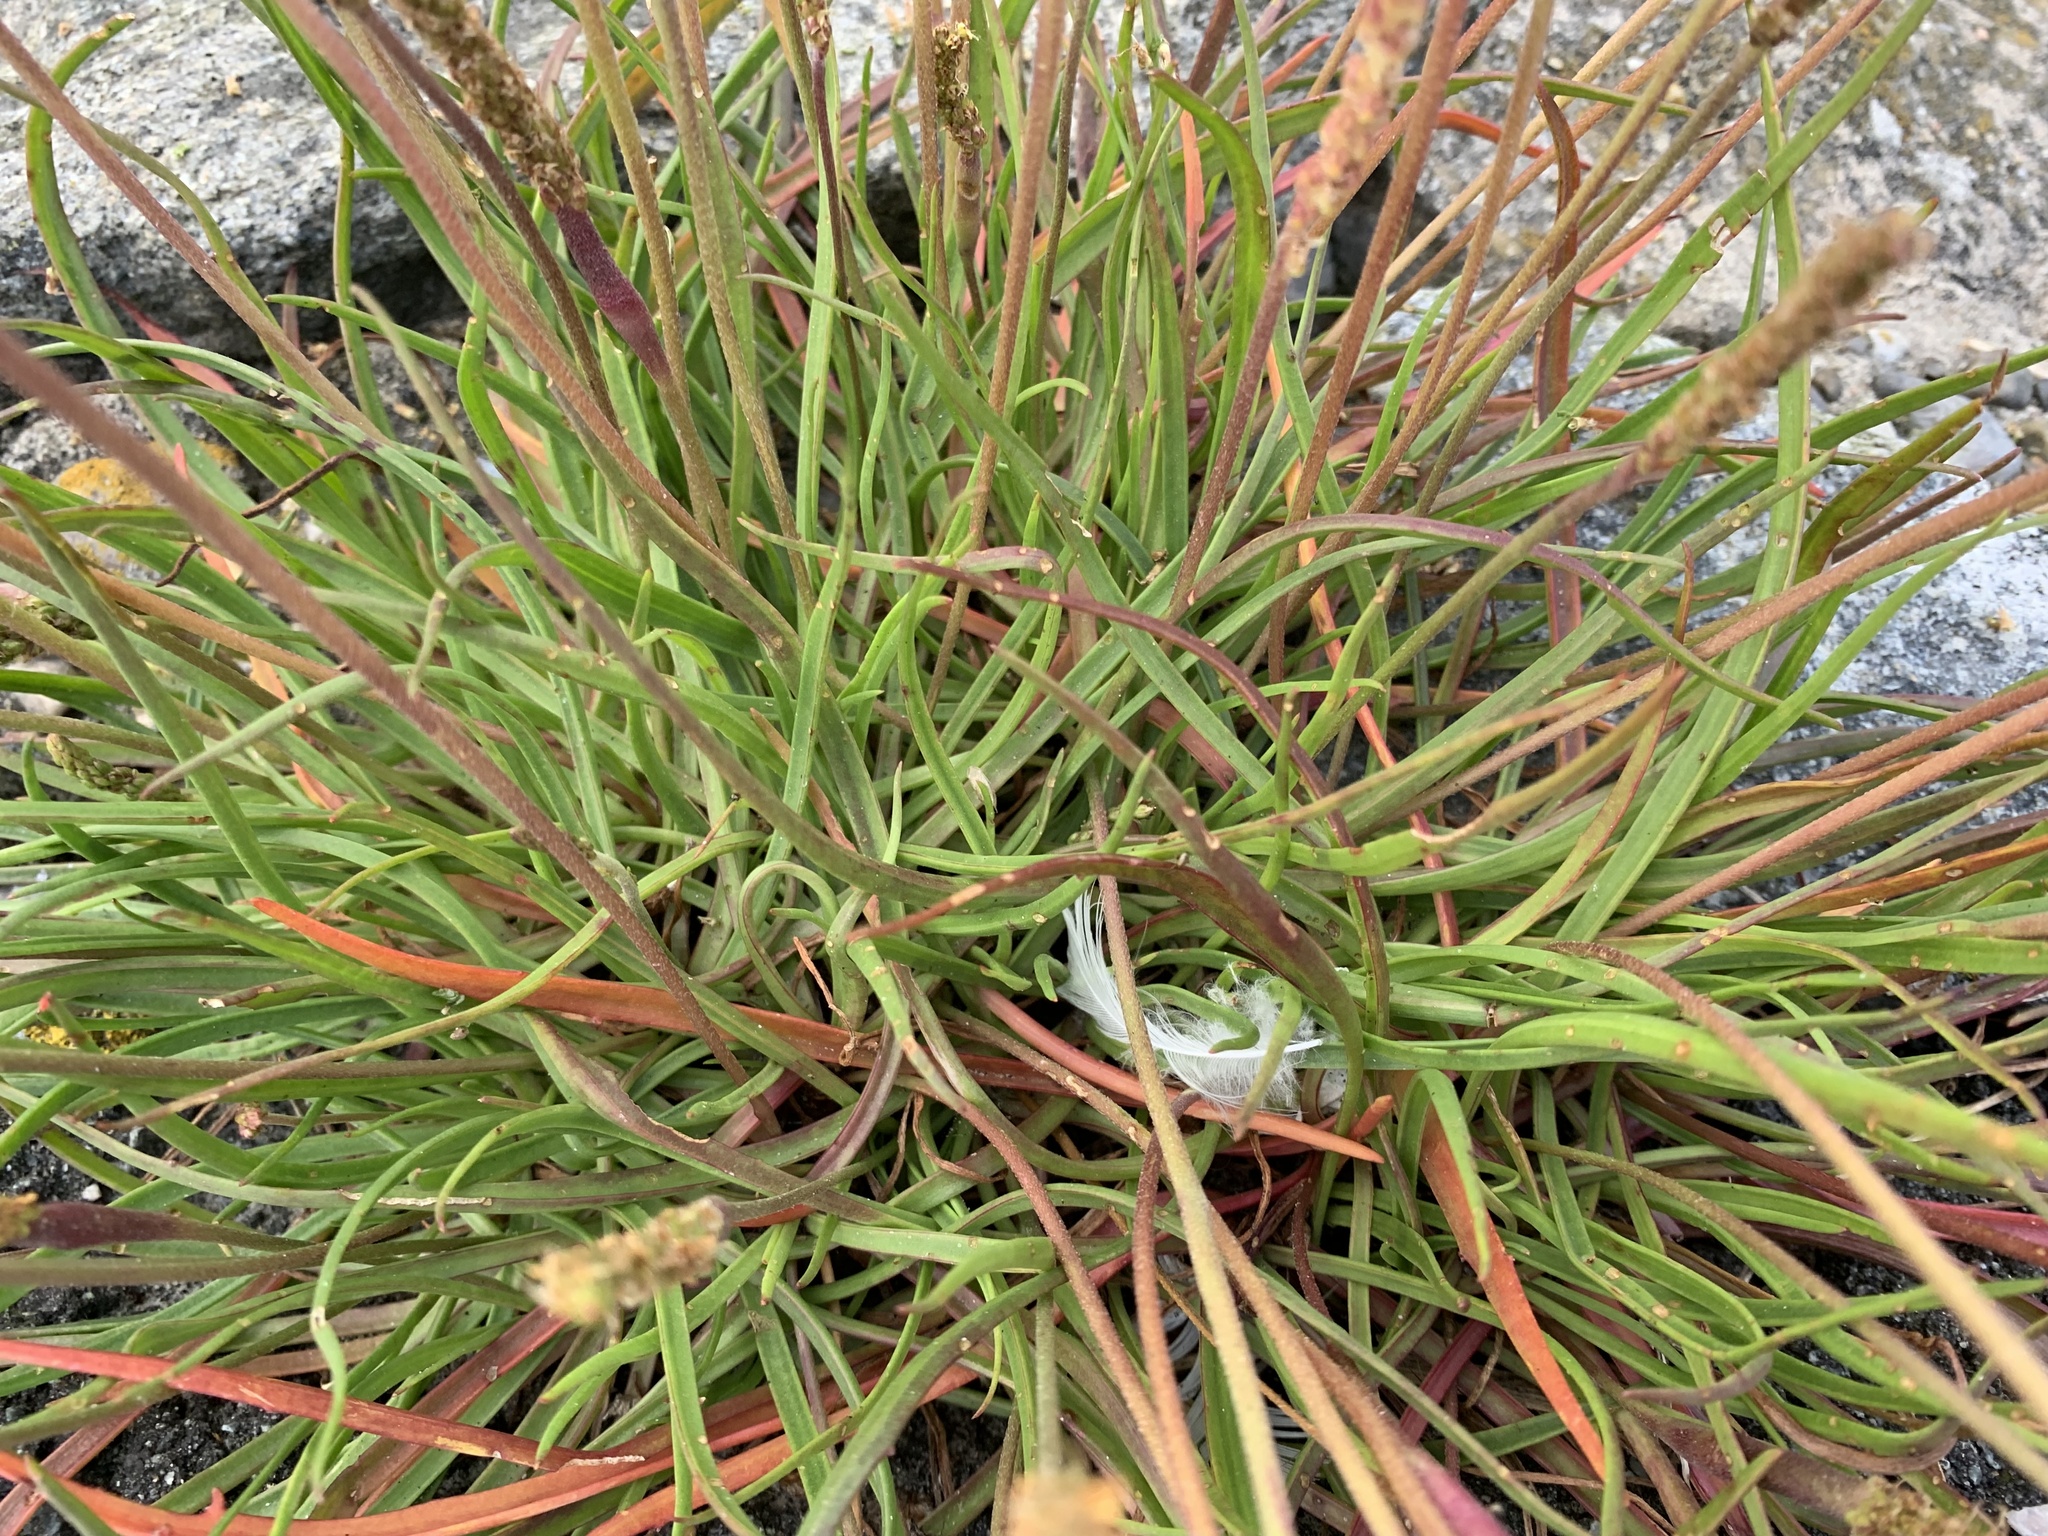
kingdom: Plantae
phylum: Tracheophyta
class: Magnoliopsida
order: Lamiales
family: Plantaginaceae
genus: Plantago
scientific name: Plantago maritima
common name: Sea plantain
